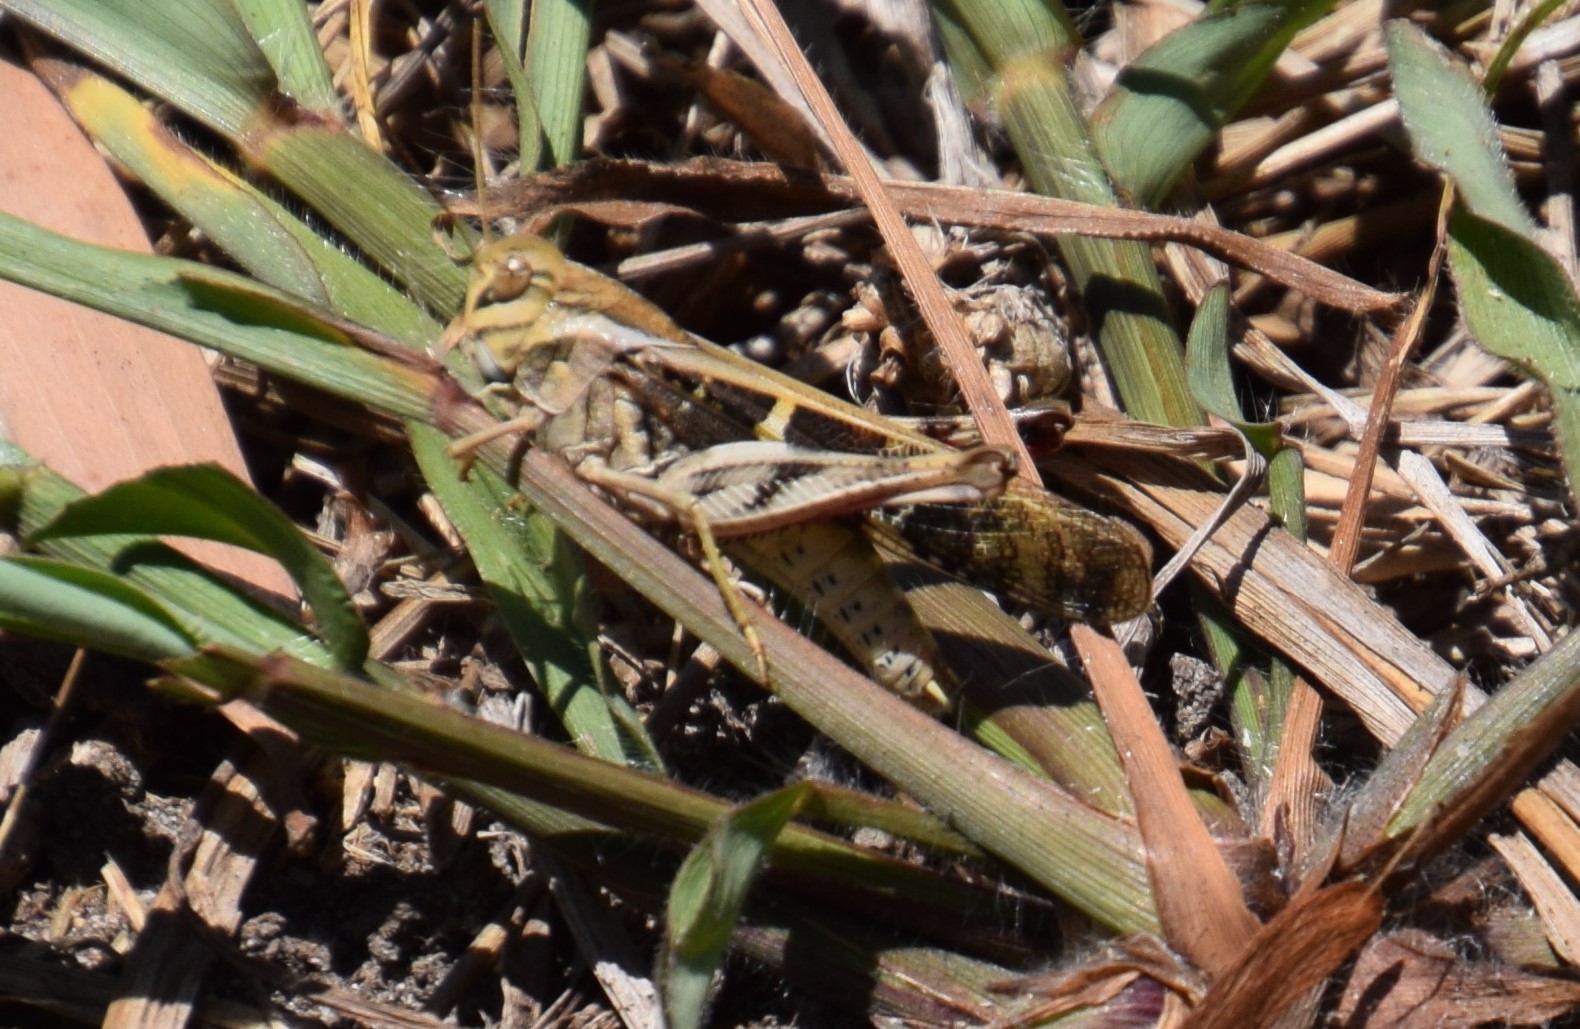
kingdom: Animalia
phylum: Arthropoda
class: Insecta
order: Orthoptera
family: Acrididae
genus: Gastrimargus
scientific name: Gastrimargus musicus
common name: Yellow-winged locust
